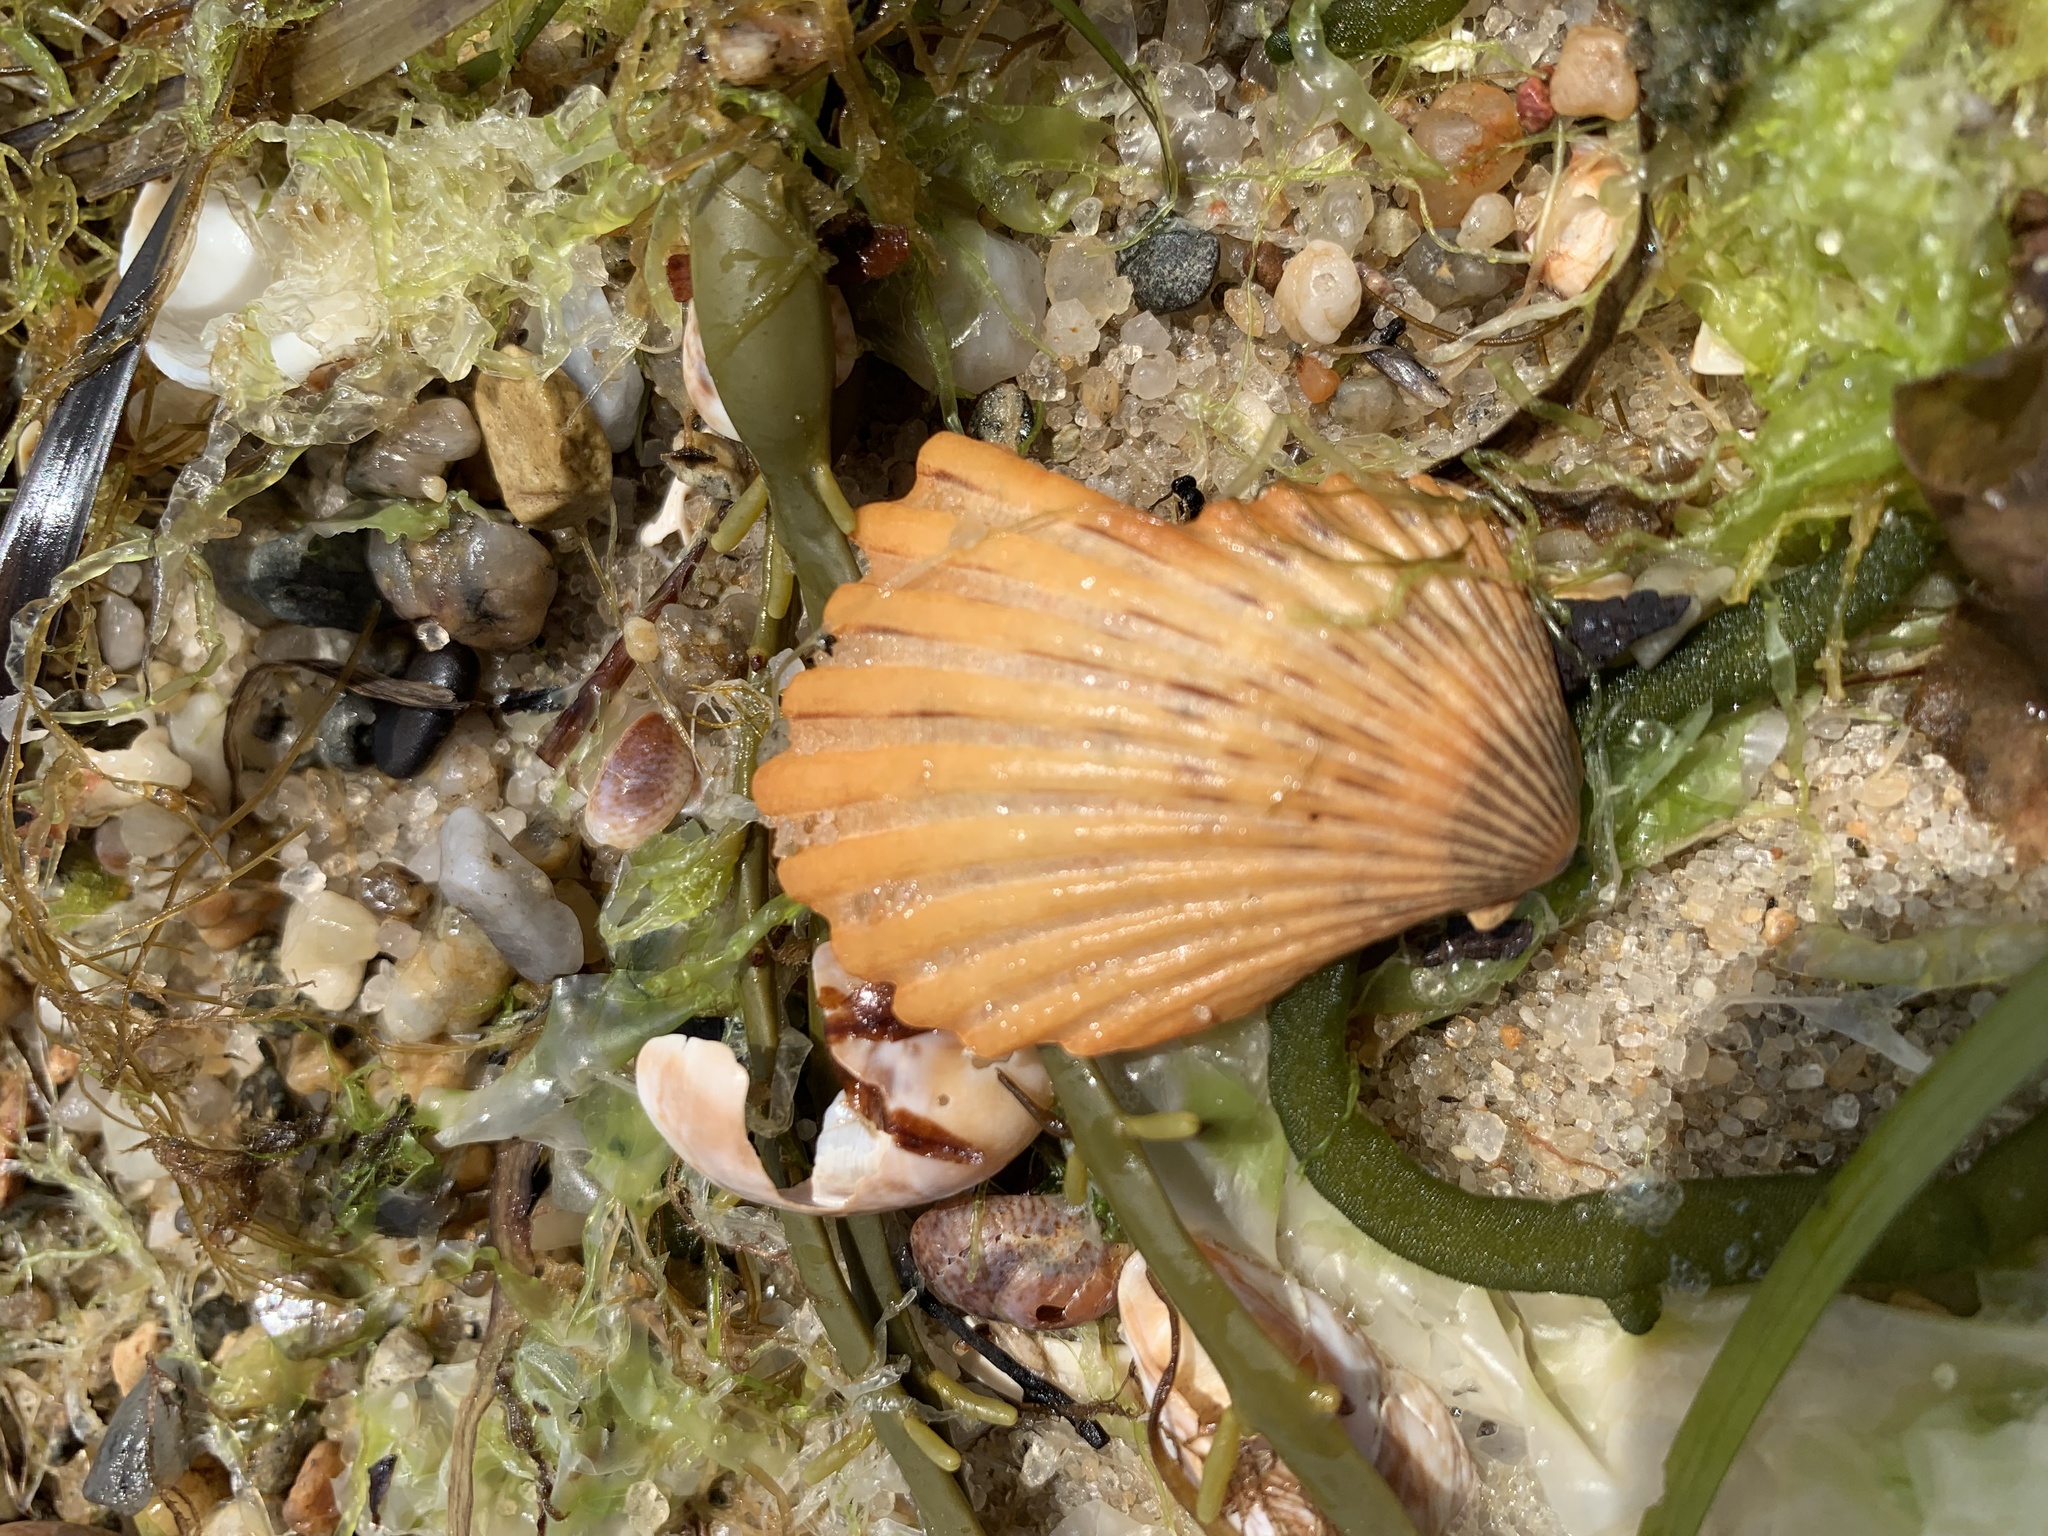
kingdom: Animalia
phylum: Mollusca
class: Bivalvia
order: Pectinida
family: Pectinidae
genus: Argopecten
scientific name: Argopecten irradians
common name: Atlantic bay scallop
